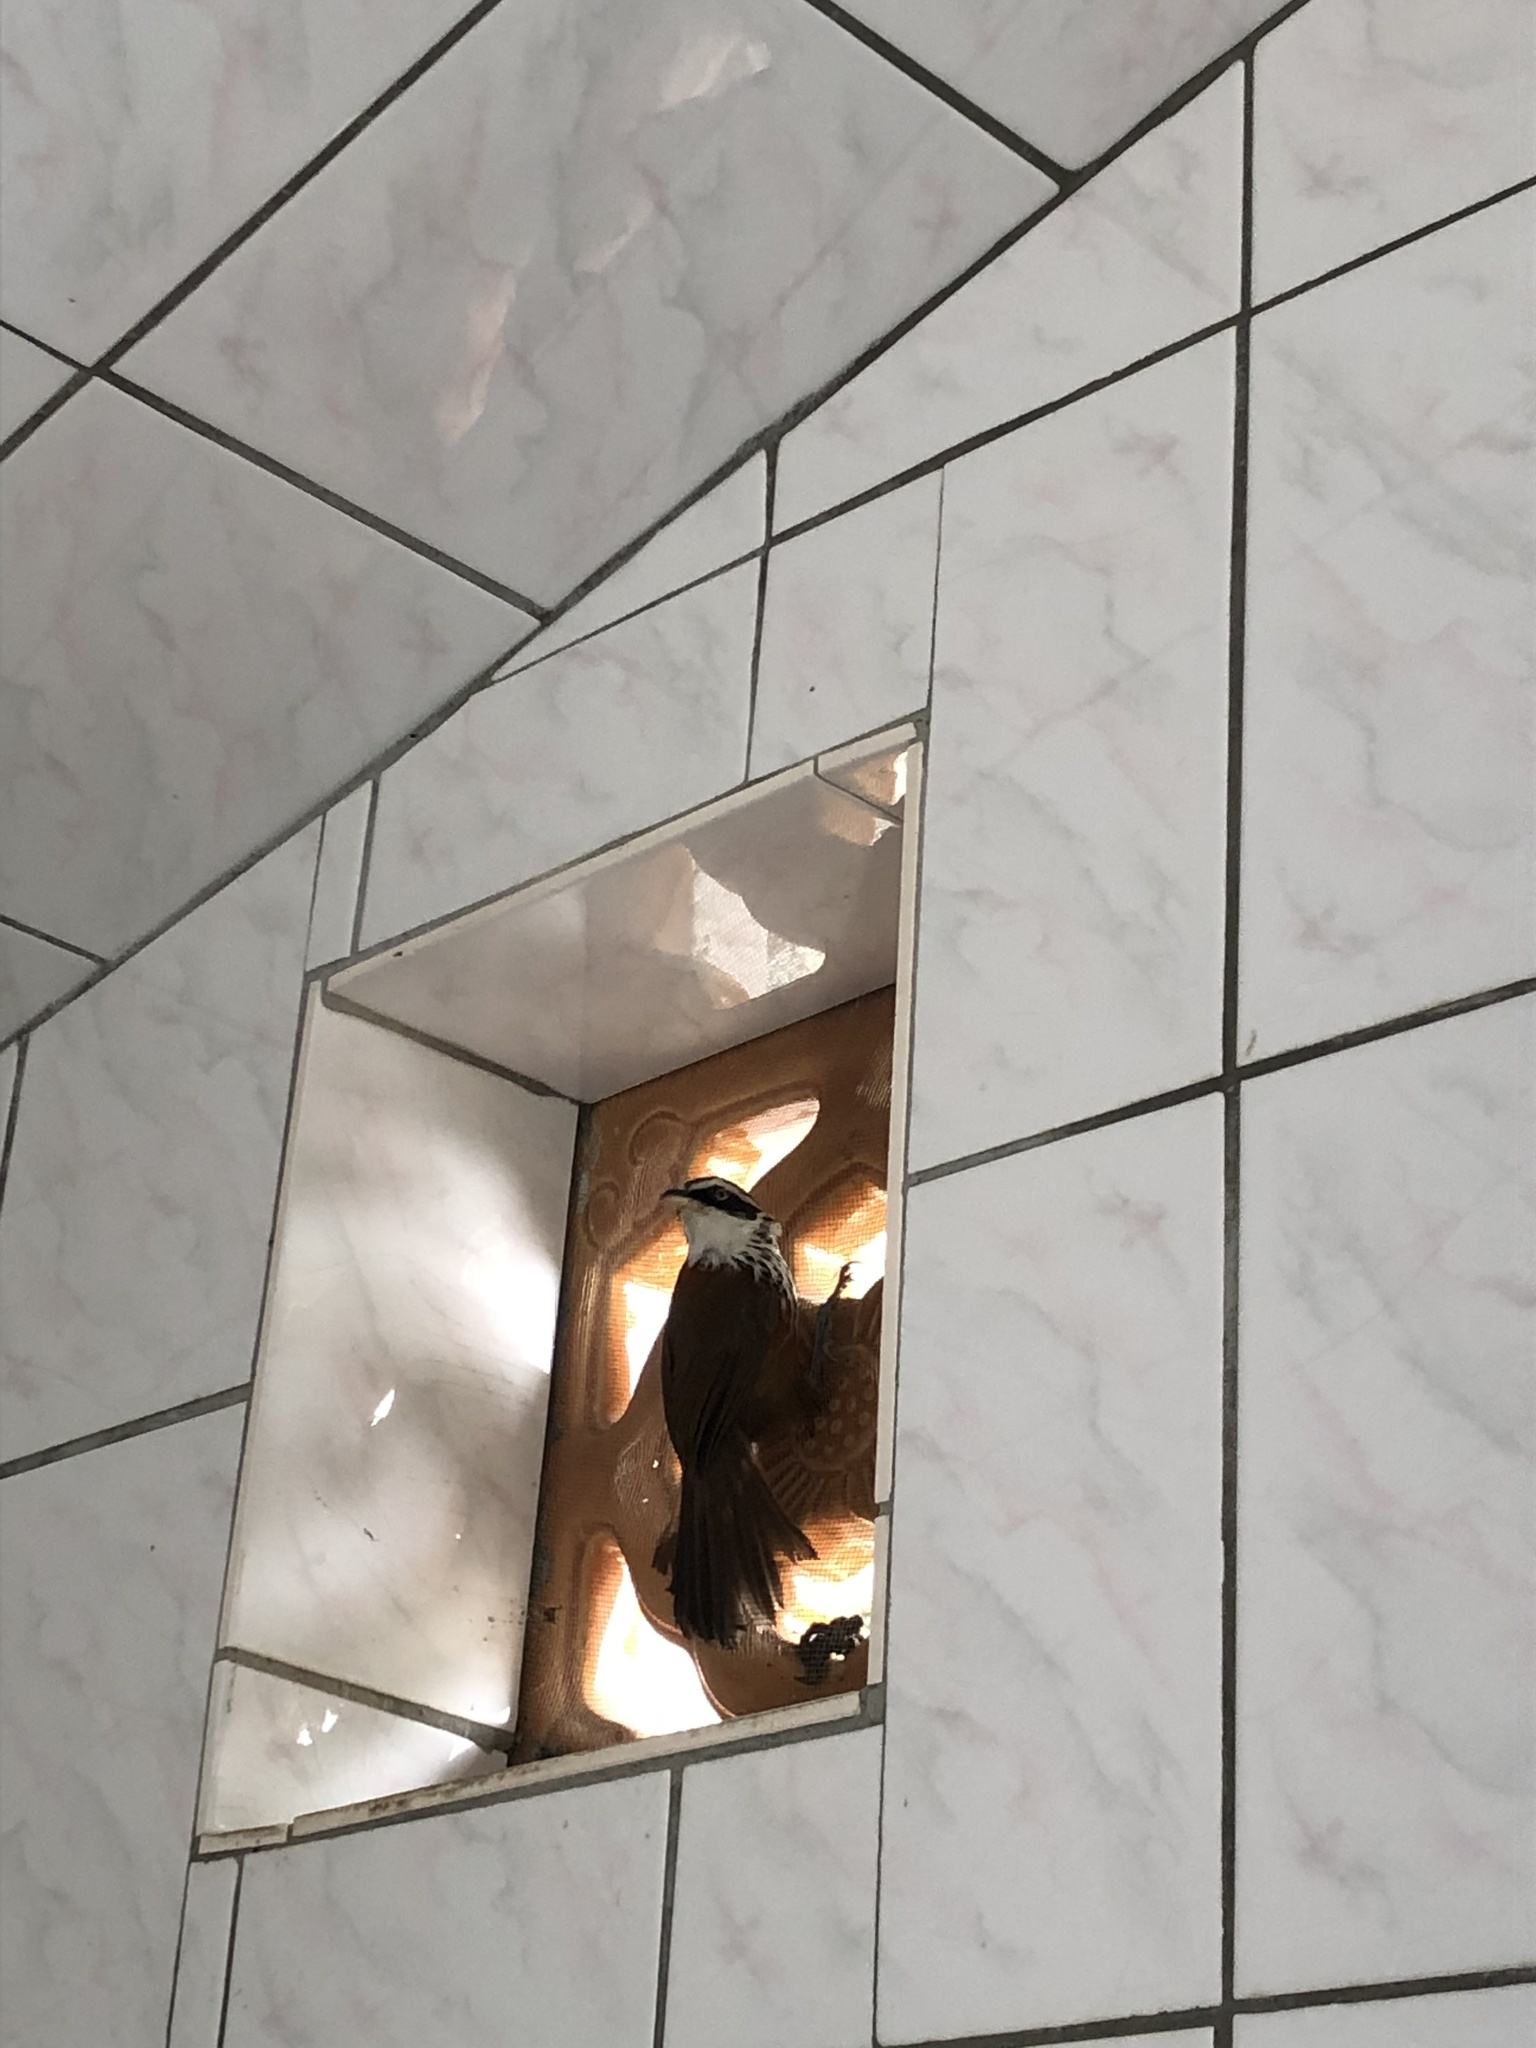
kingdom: Animalia
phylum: Chordata
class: Aves
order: Passeriformes
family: Timaliidae
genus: Pomatorhinus
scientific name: Pomatorhinus musicus
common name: Taiwan scimitar-babbler
